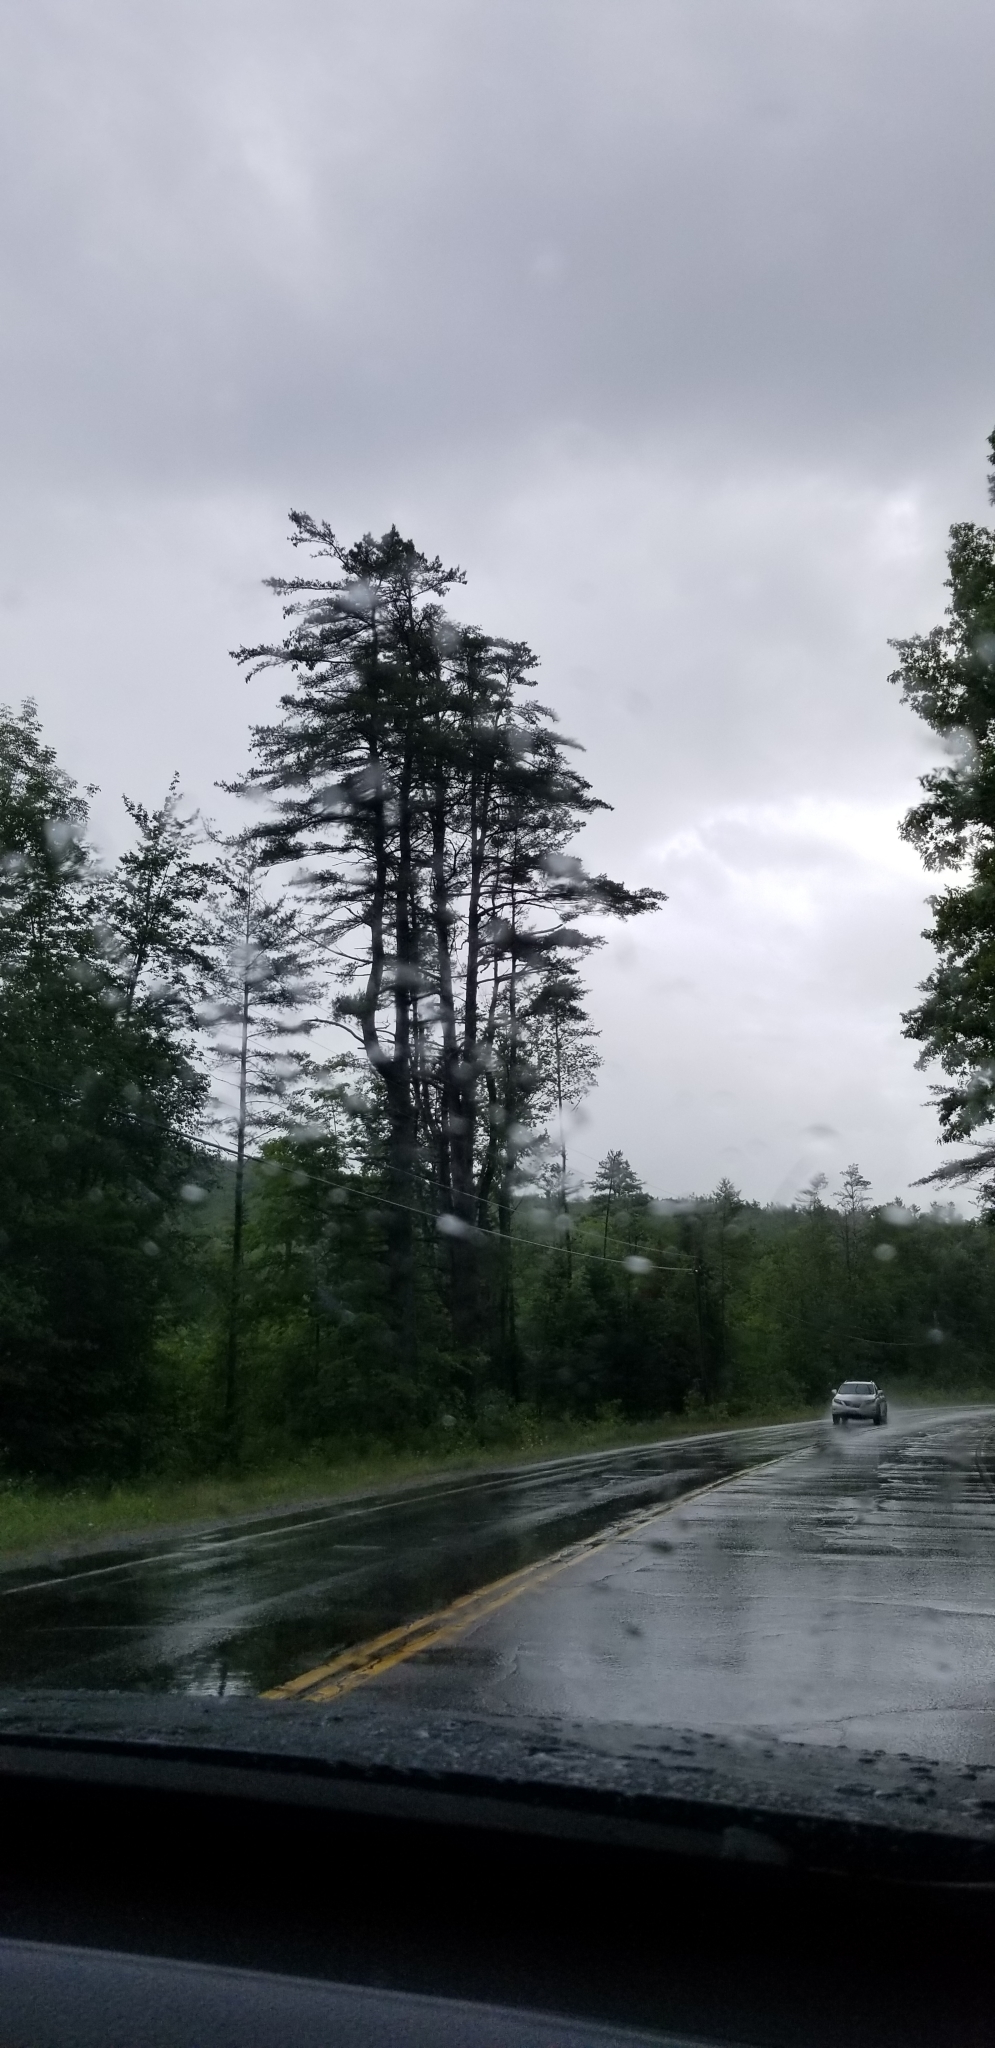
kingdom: Plantae
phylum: Tracheophyta
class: Pinopsida
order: Pinales
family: Pinaceae
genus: Pinus
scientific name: Pinus strobus
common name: Weymouth pine
